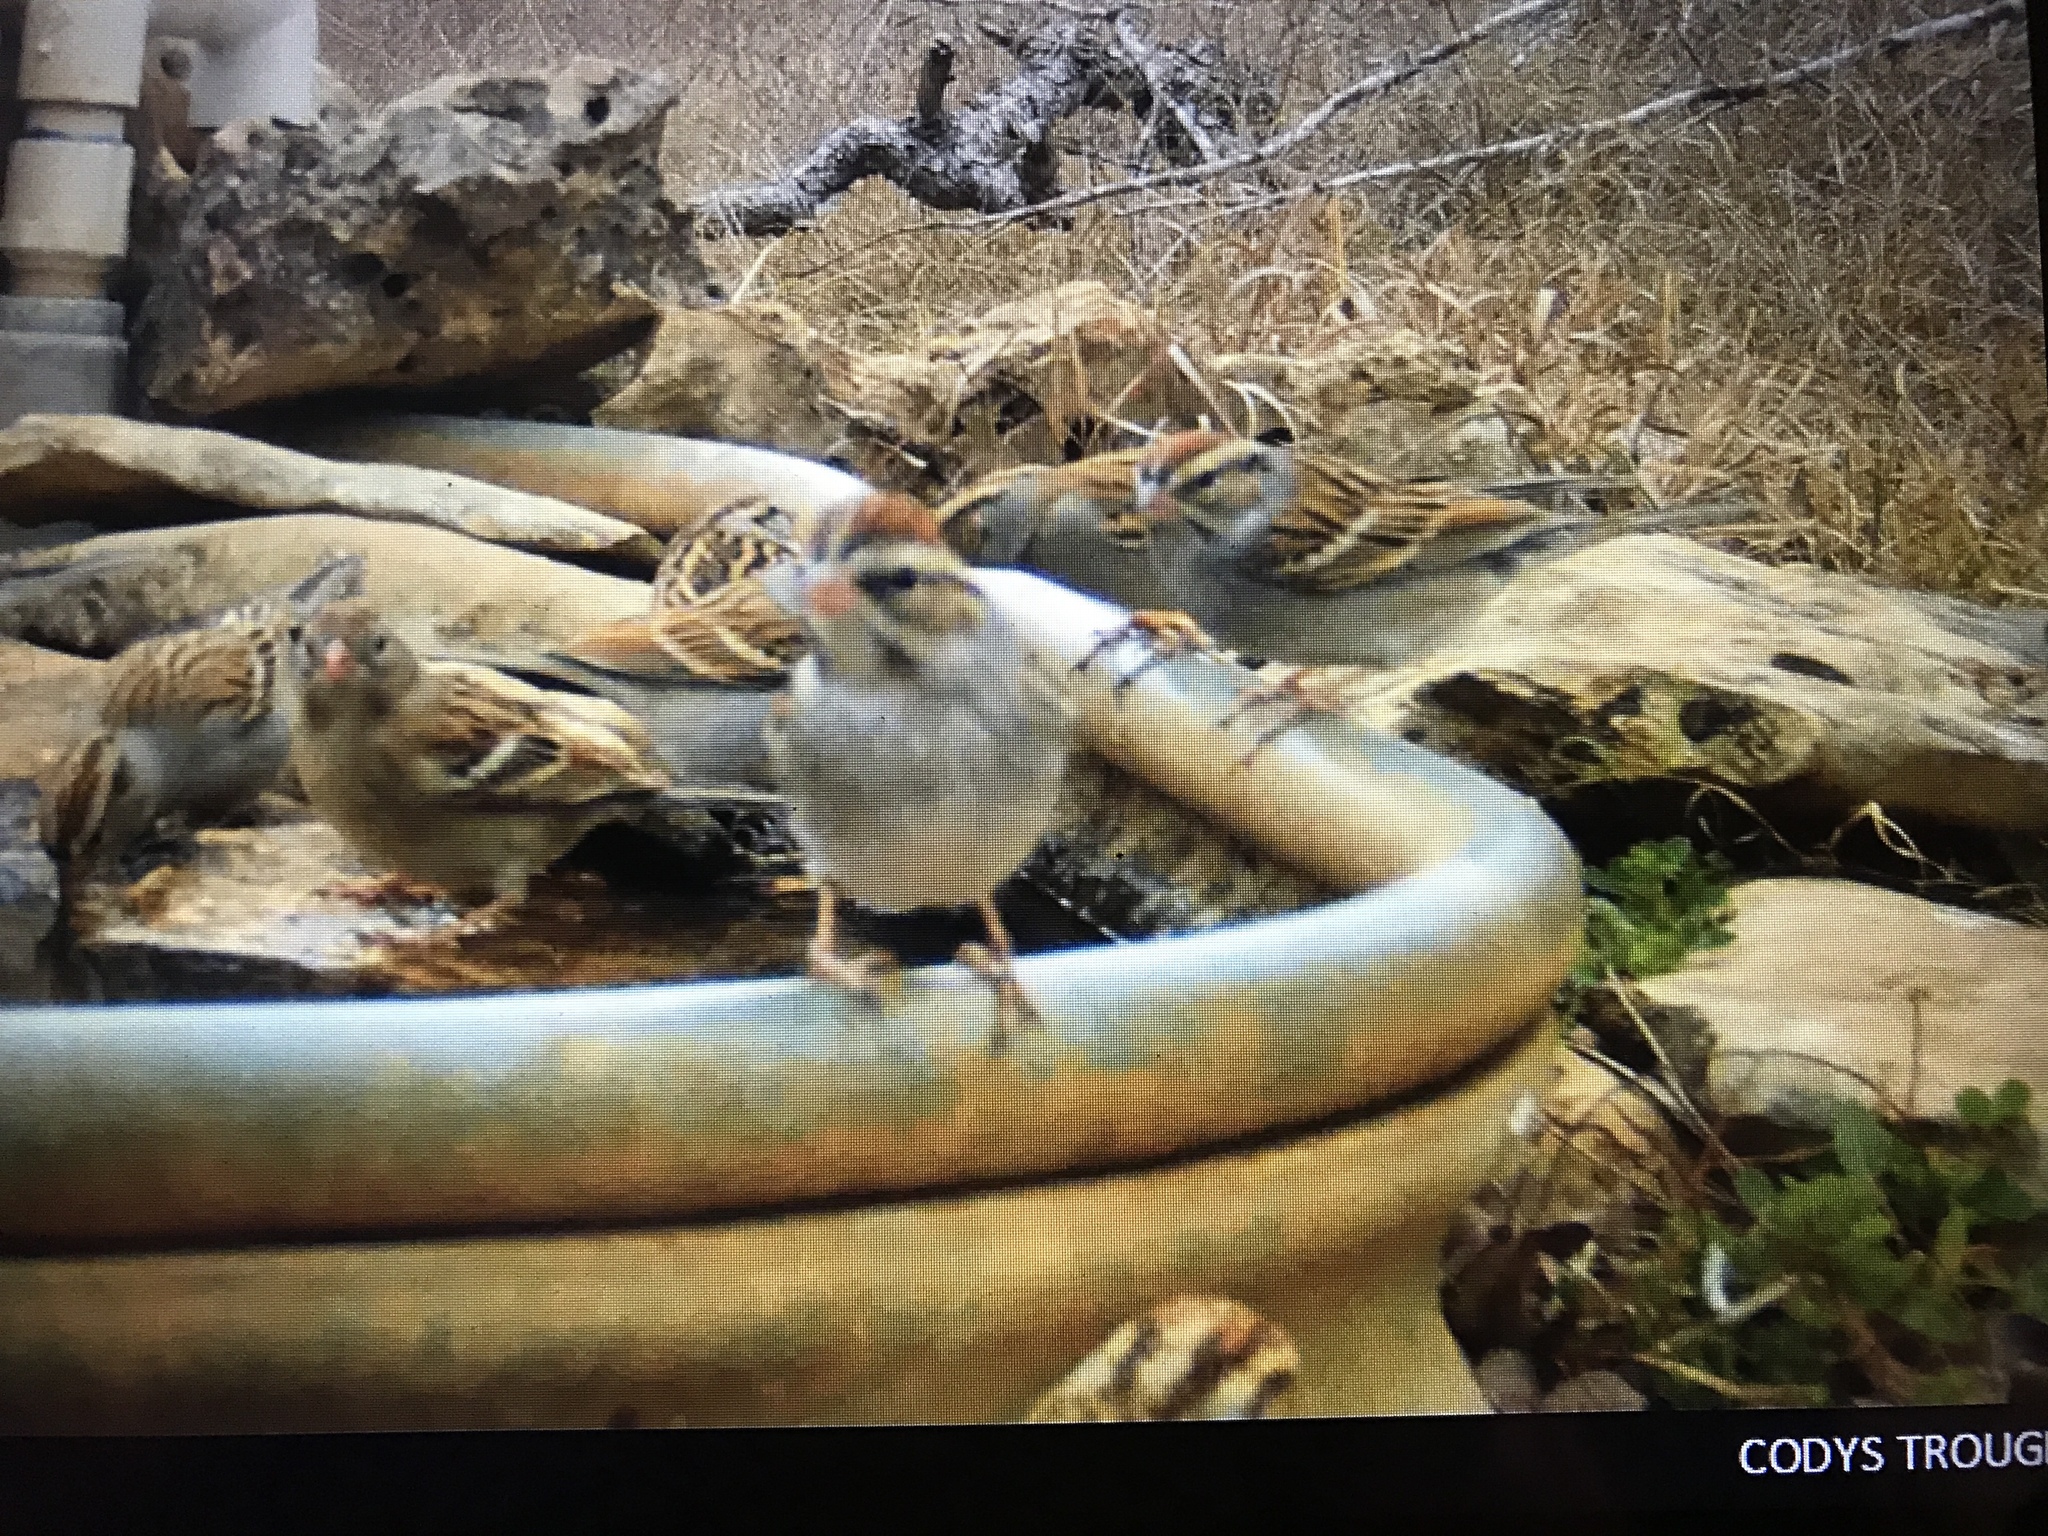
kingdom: Animalia
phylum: Chordata
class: Aves
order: Passeriformes
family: Passerellidae
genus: Spizella
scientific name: Spizella passerina
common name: Chipping sparrow
